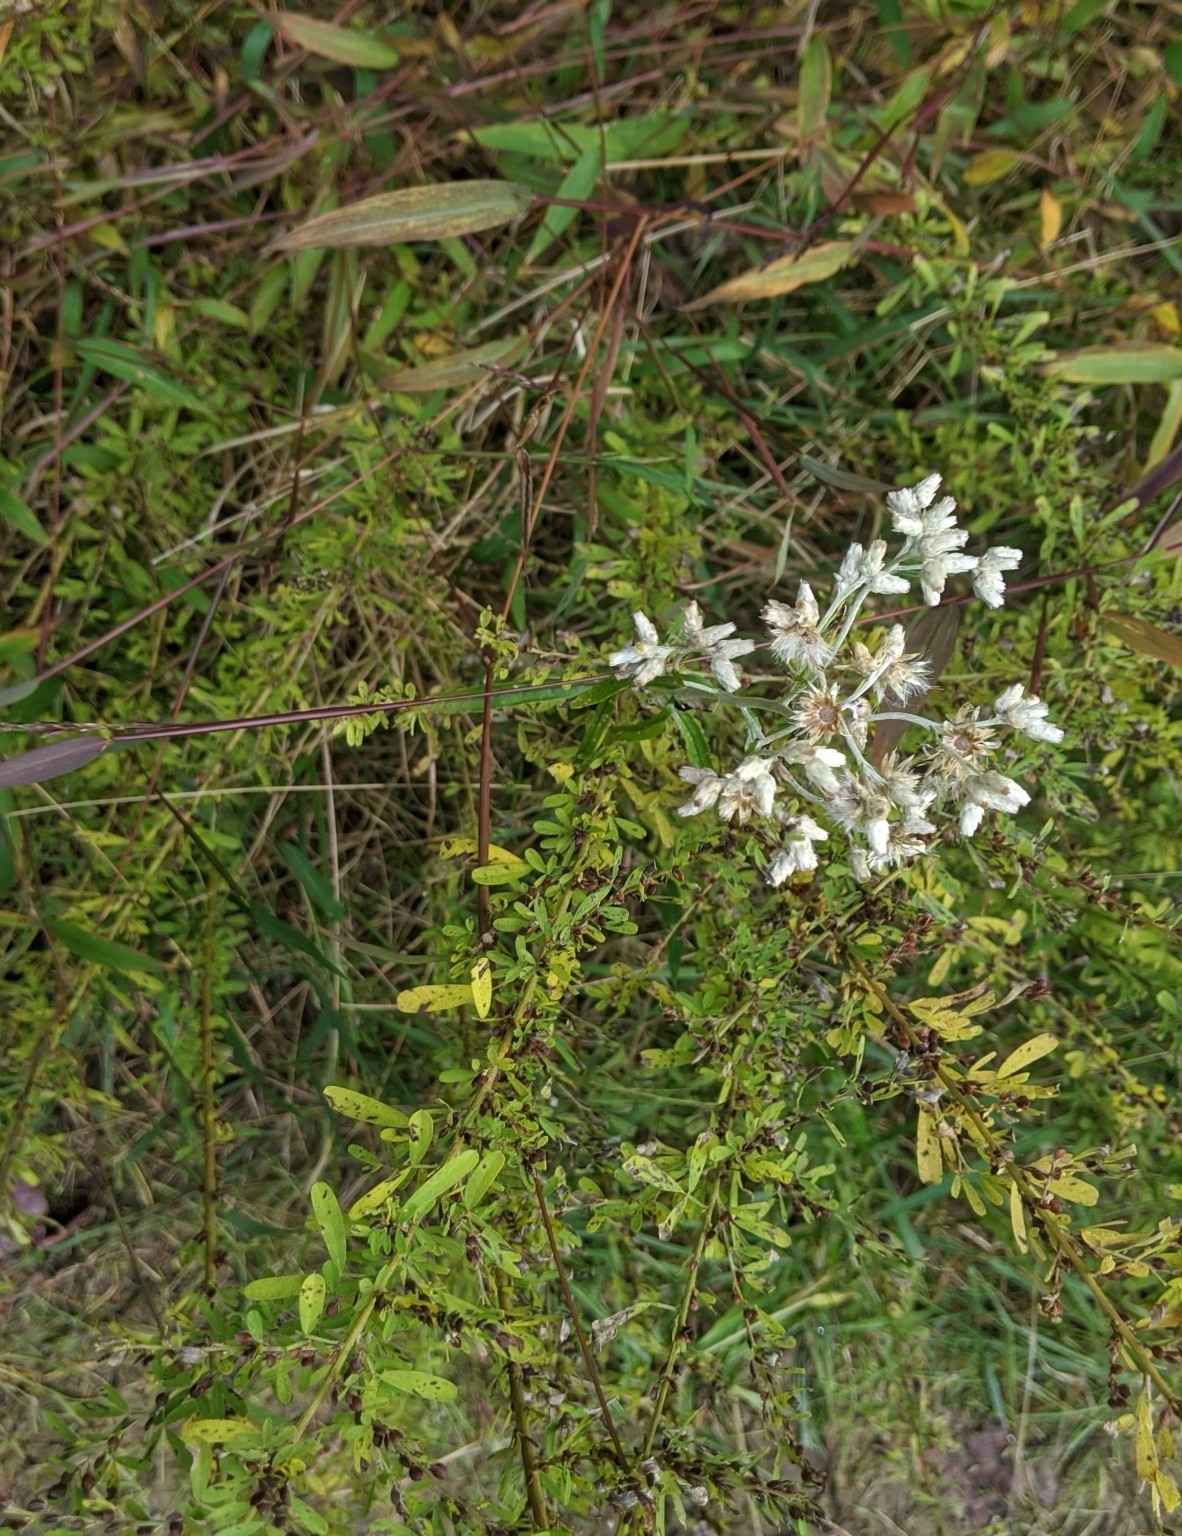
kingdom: Plantae
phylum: Tracheophyta
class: Magnoliopsida
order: Asterales
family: Asteraceae
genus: Pseudognaphalium
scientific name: Pseudognaphalium obtusifolium
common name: Eastern rabbit-tobacco
